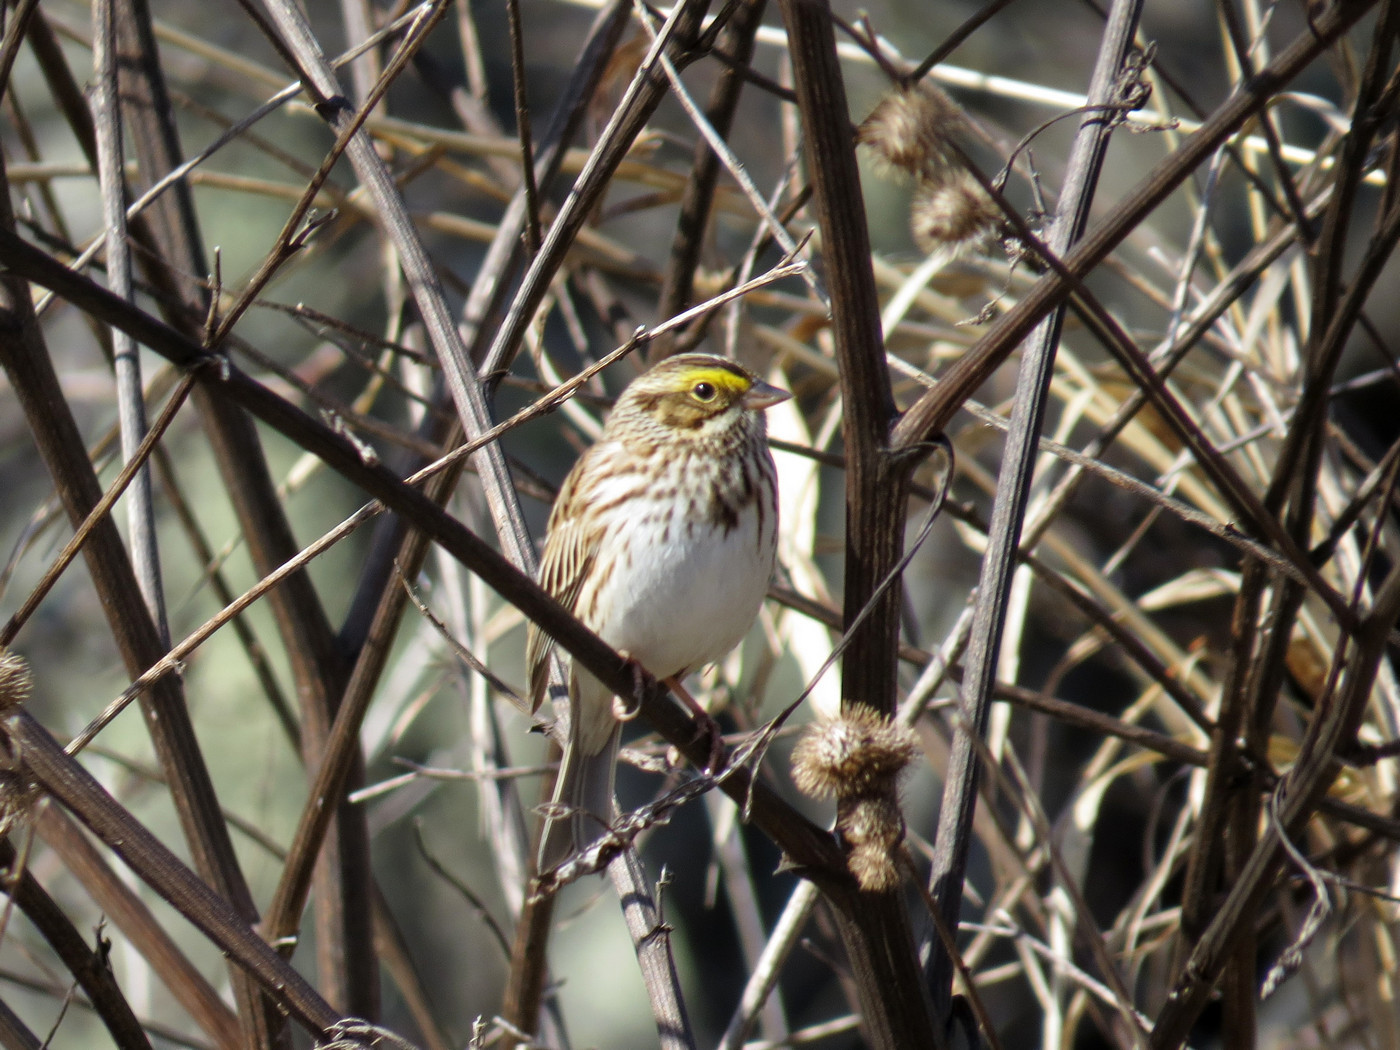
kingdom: Animalia
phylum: Chordata
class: Aves
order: Passeriformes
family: Passerellidae
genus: Passerculus
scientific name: Passerculus sandwichensis
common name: Savannah sparrow
